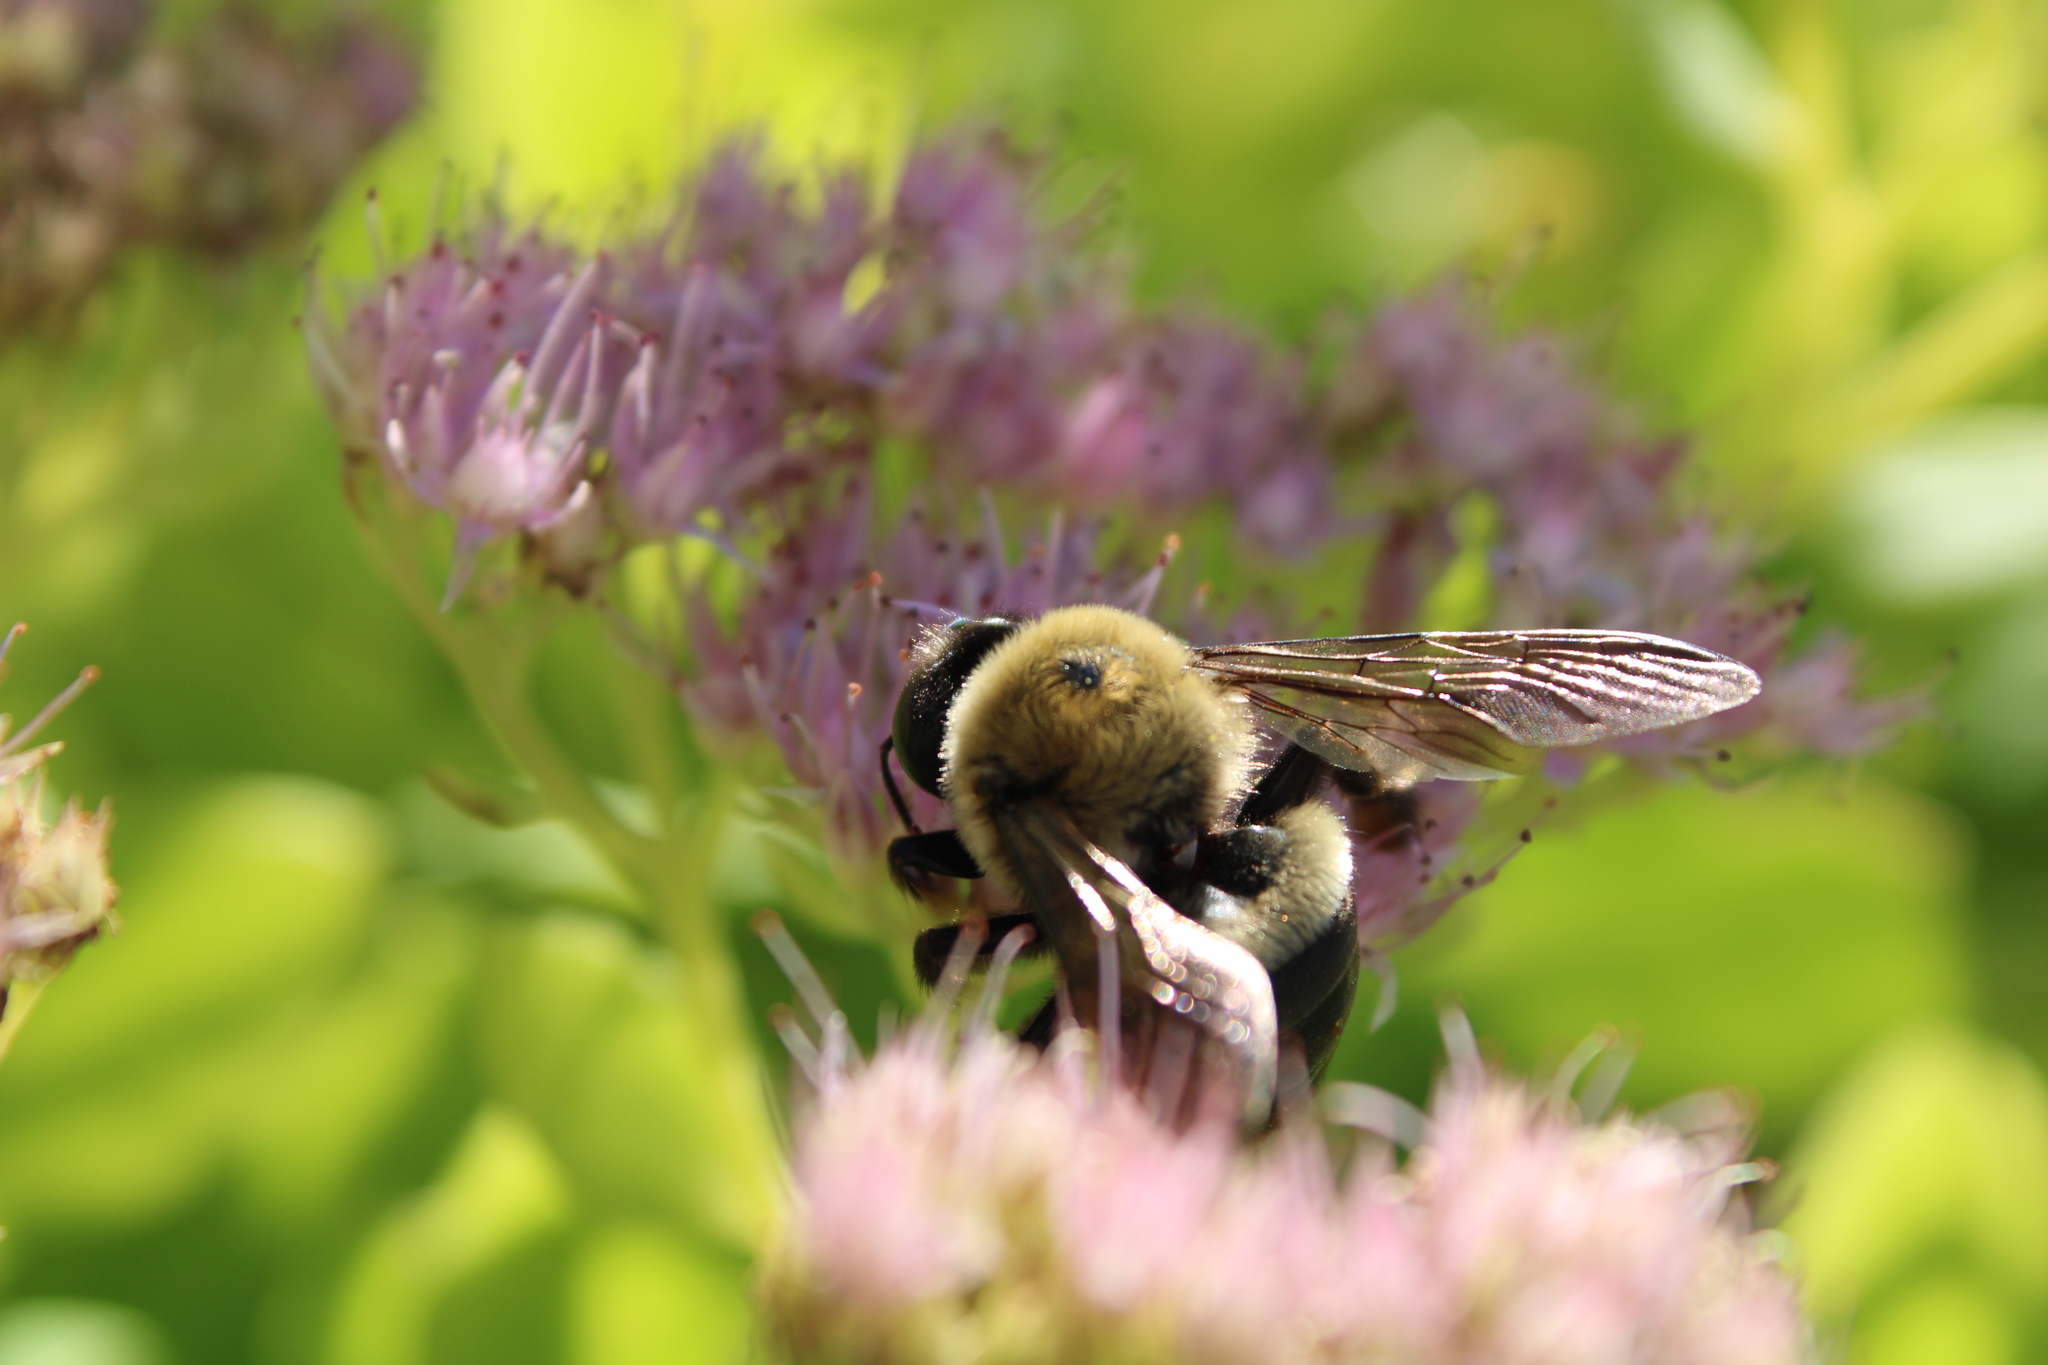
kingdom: Animalia
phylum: Arthropoda
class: Insecta
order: Hymenoptera
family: Apidae
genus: Xylocopa
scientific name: Xylocopa virginica
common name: Carpenter bee
